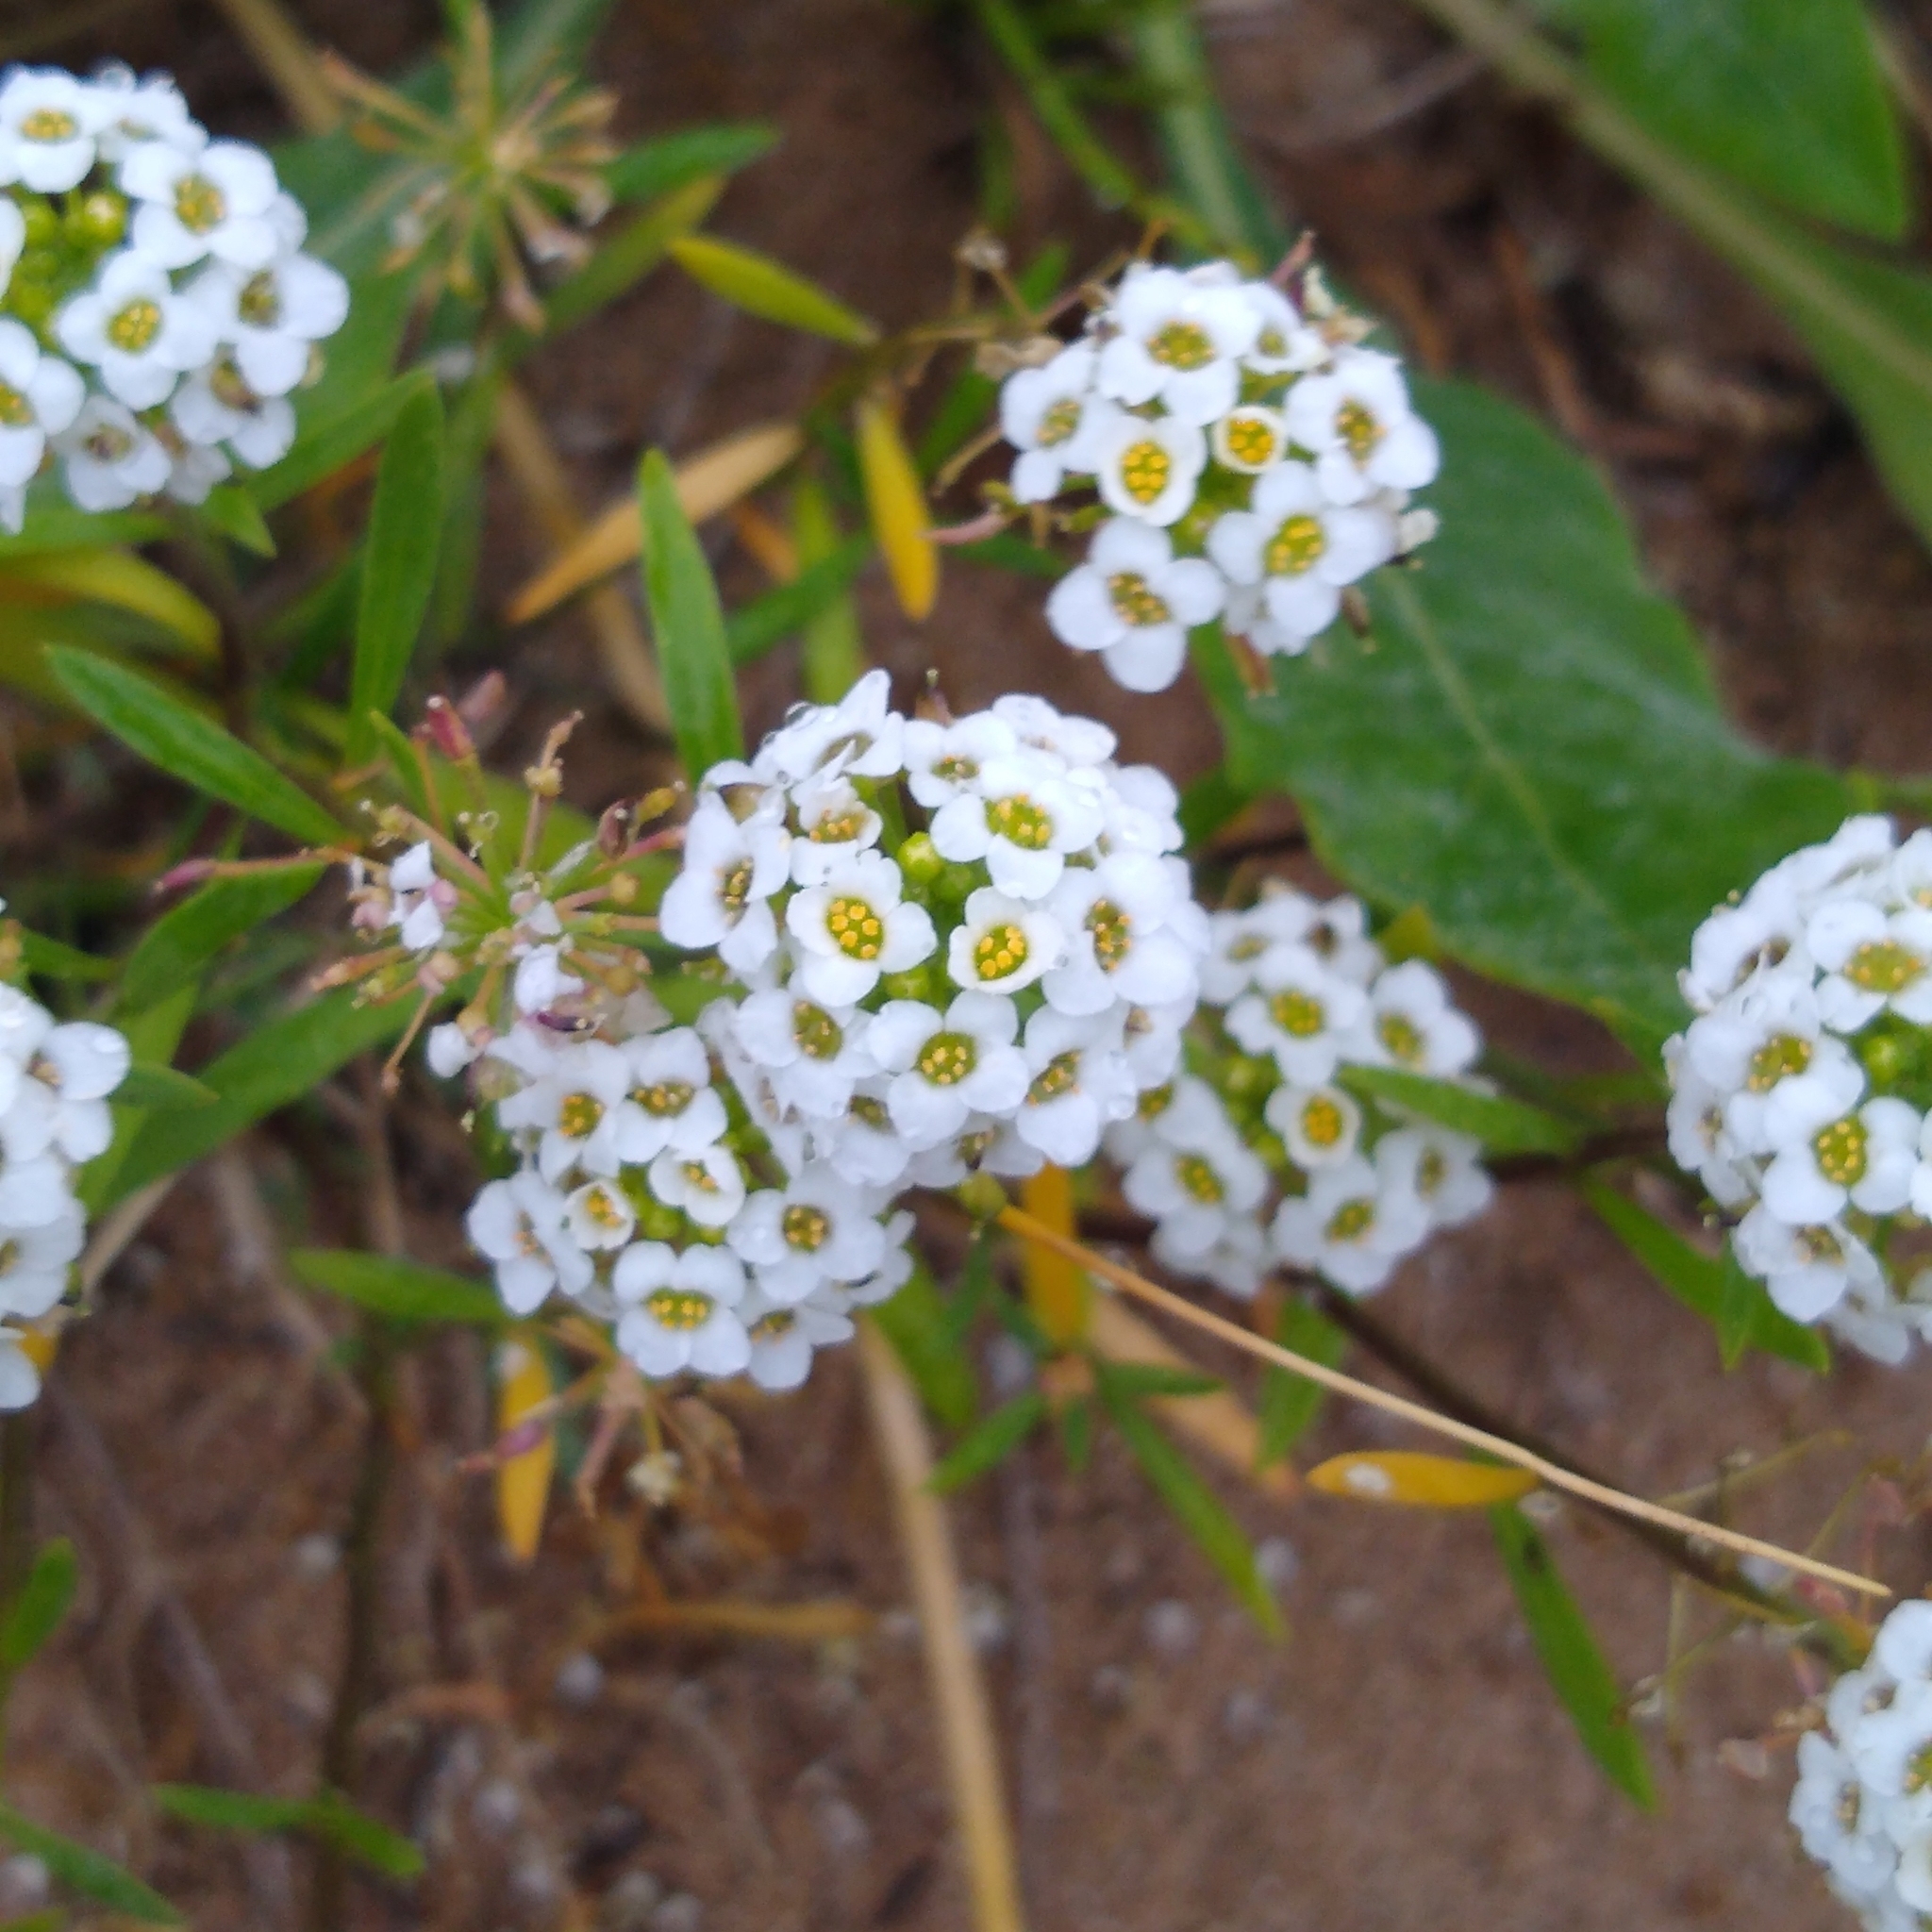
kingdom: Plantae
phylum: Tracheophyta
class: Magnoliopsida
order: Brassicales
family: Brassicaceae
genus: Lobularia
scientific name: Lobularia maritima
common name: Sweet alison
